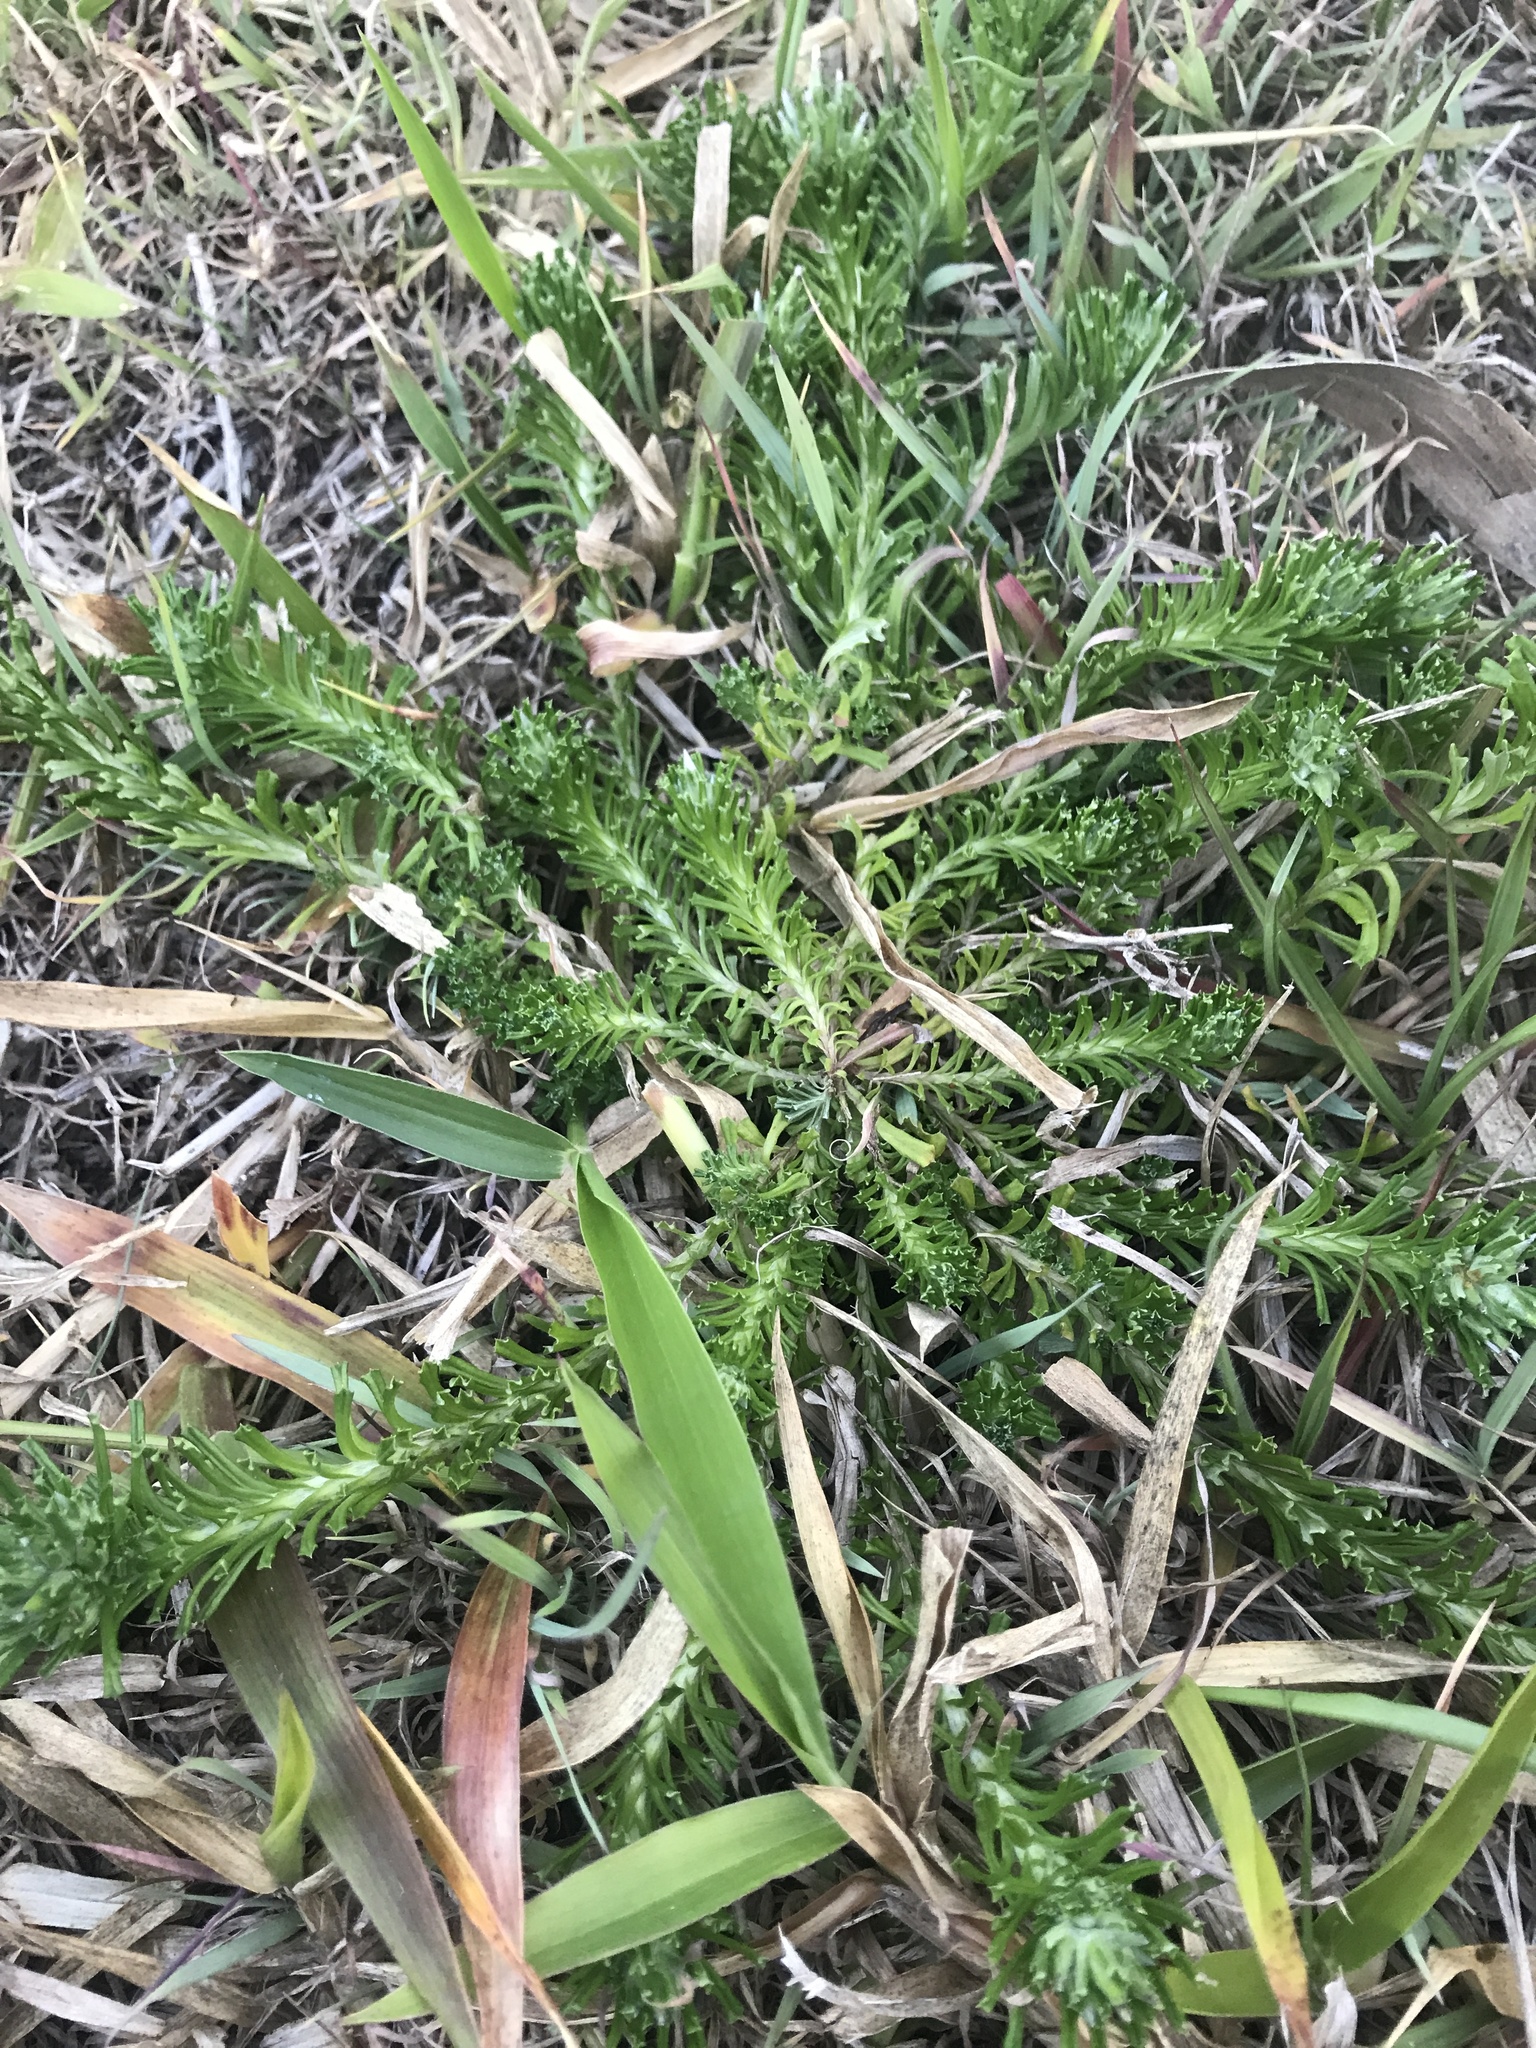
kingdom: Plantae
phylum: Tracheophyta
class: Magnoliopsida
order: Asterales
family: Asteraceae
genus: Facelis
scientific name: Facelis retusa
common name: Annual trampweed
